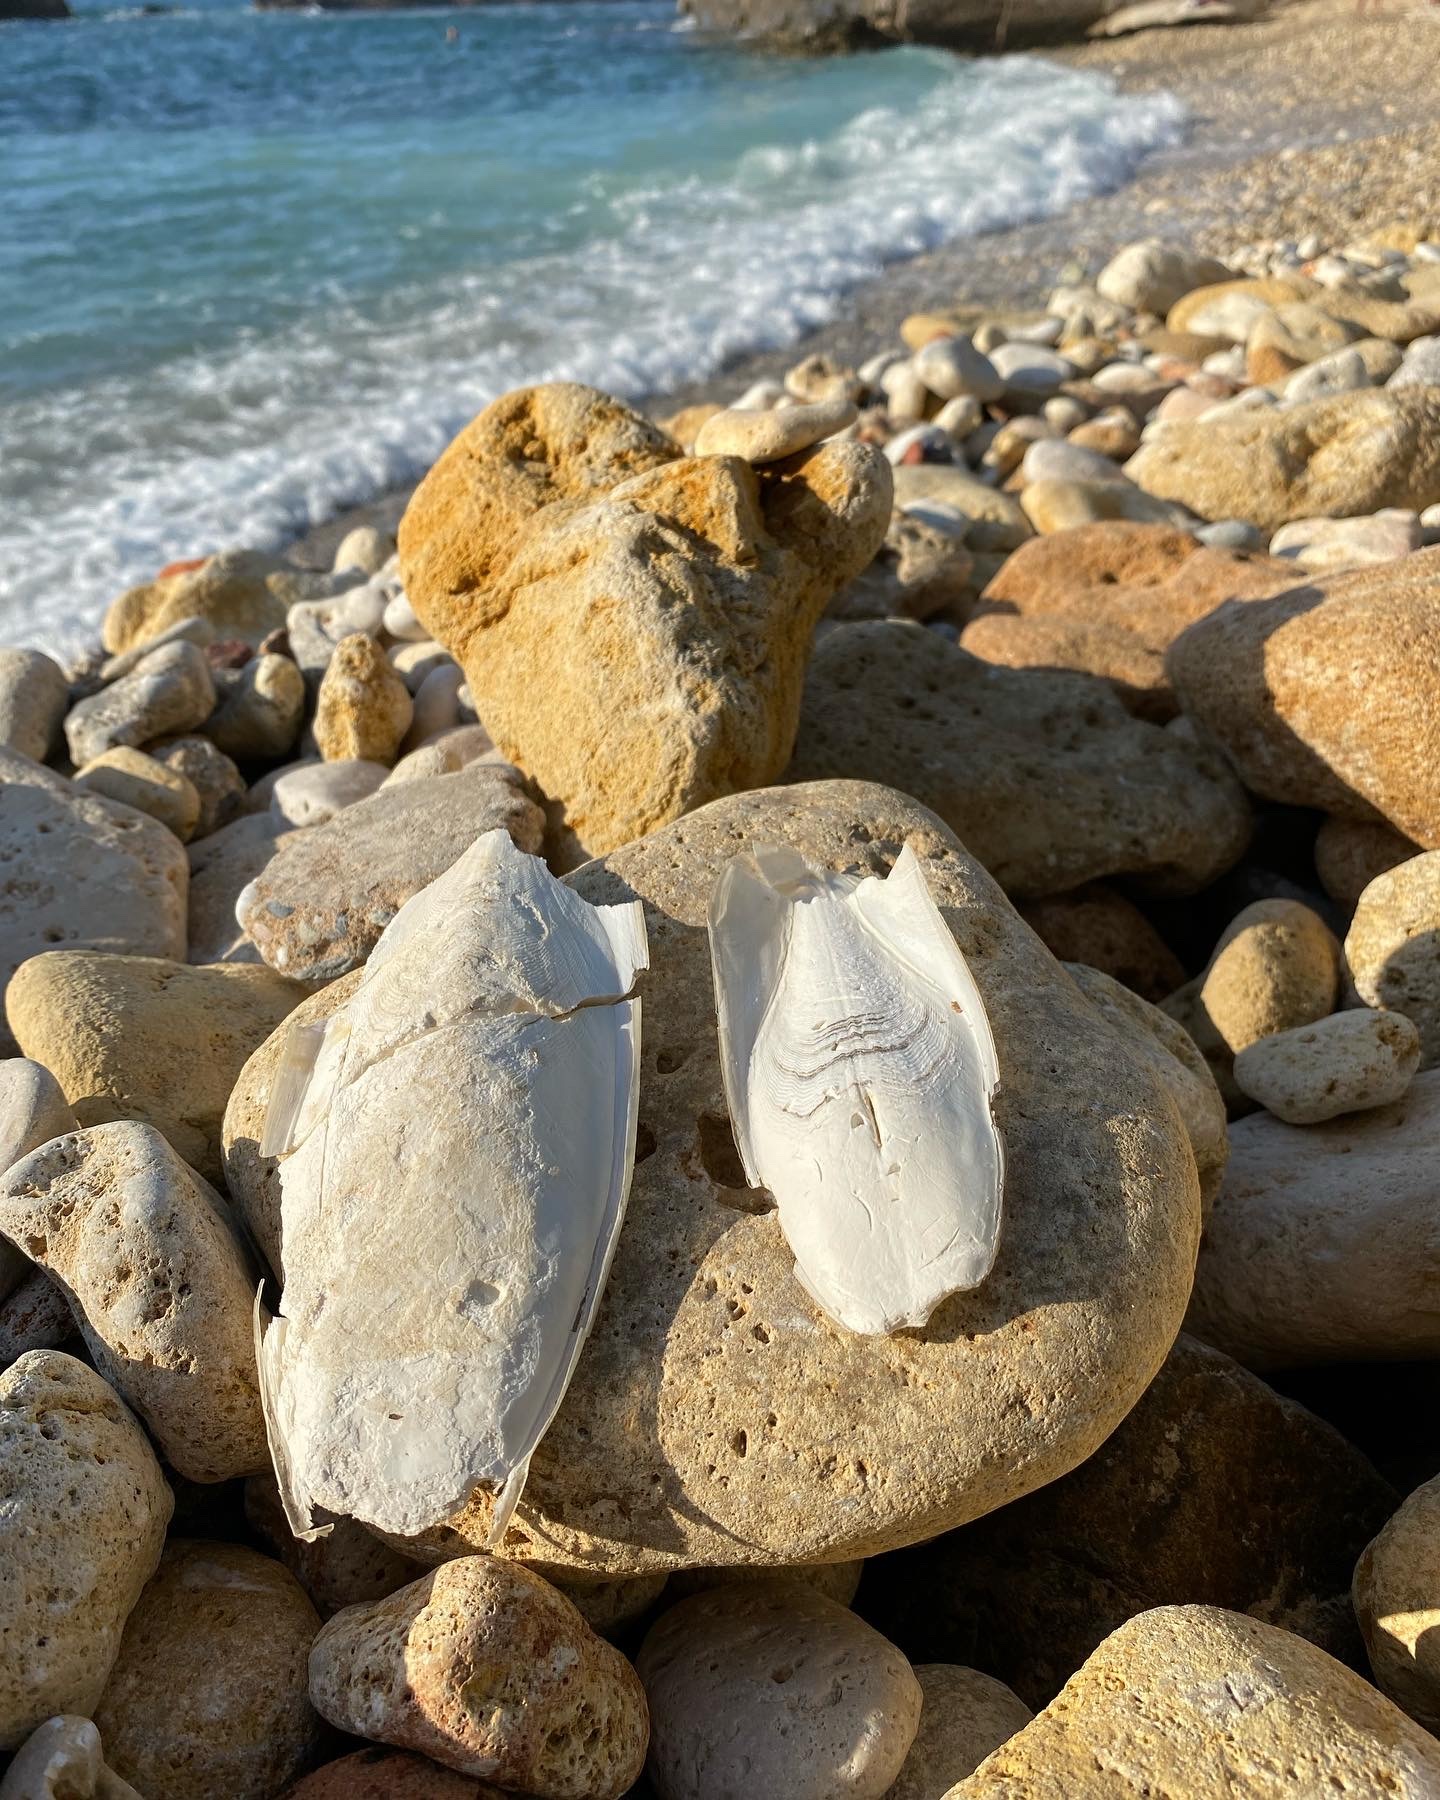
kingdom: Animalia
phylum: Mollusca
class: Cephalopoda
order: Sepiida
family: Sepiidae
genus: Sepia
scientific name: Sepia officinalis
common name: Common cuttlefish
